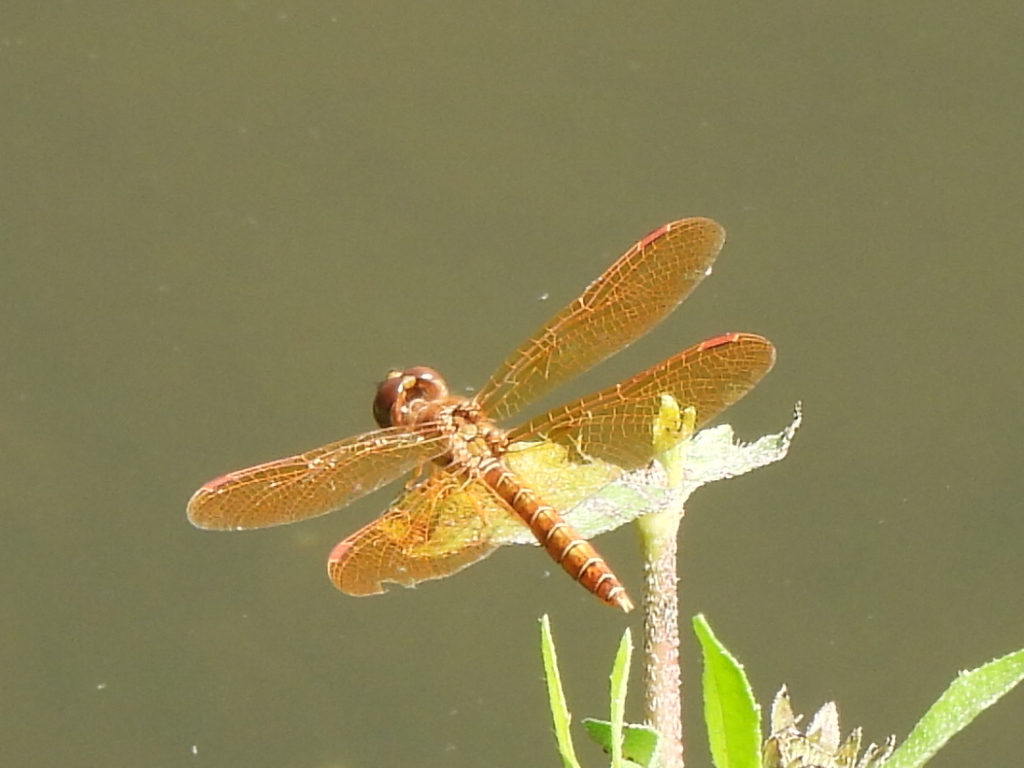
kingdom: Animalia
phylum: Arthropoda
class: Insecta
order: Odonata
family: Libellulidae
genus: Perithemis
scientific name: Perithemis tenera
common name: Eastern amberwing
